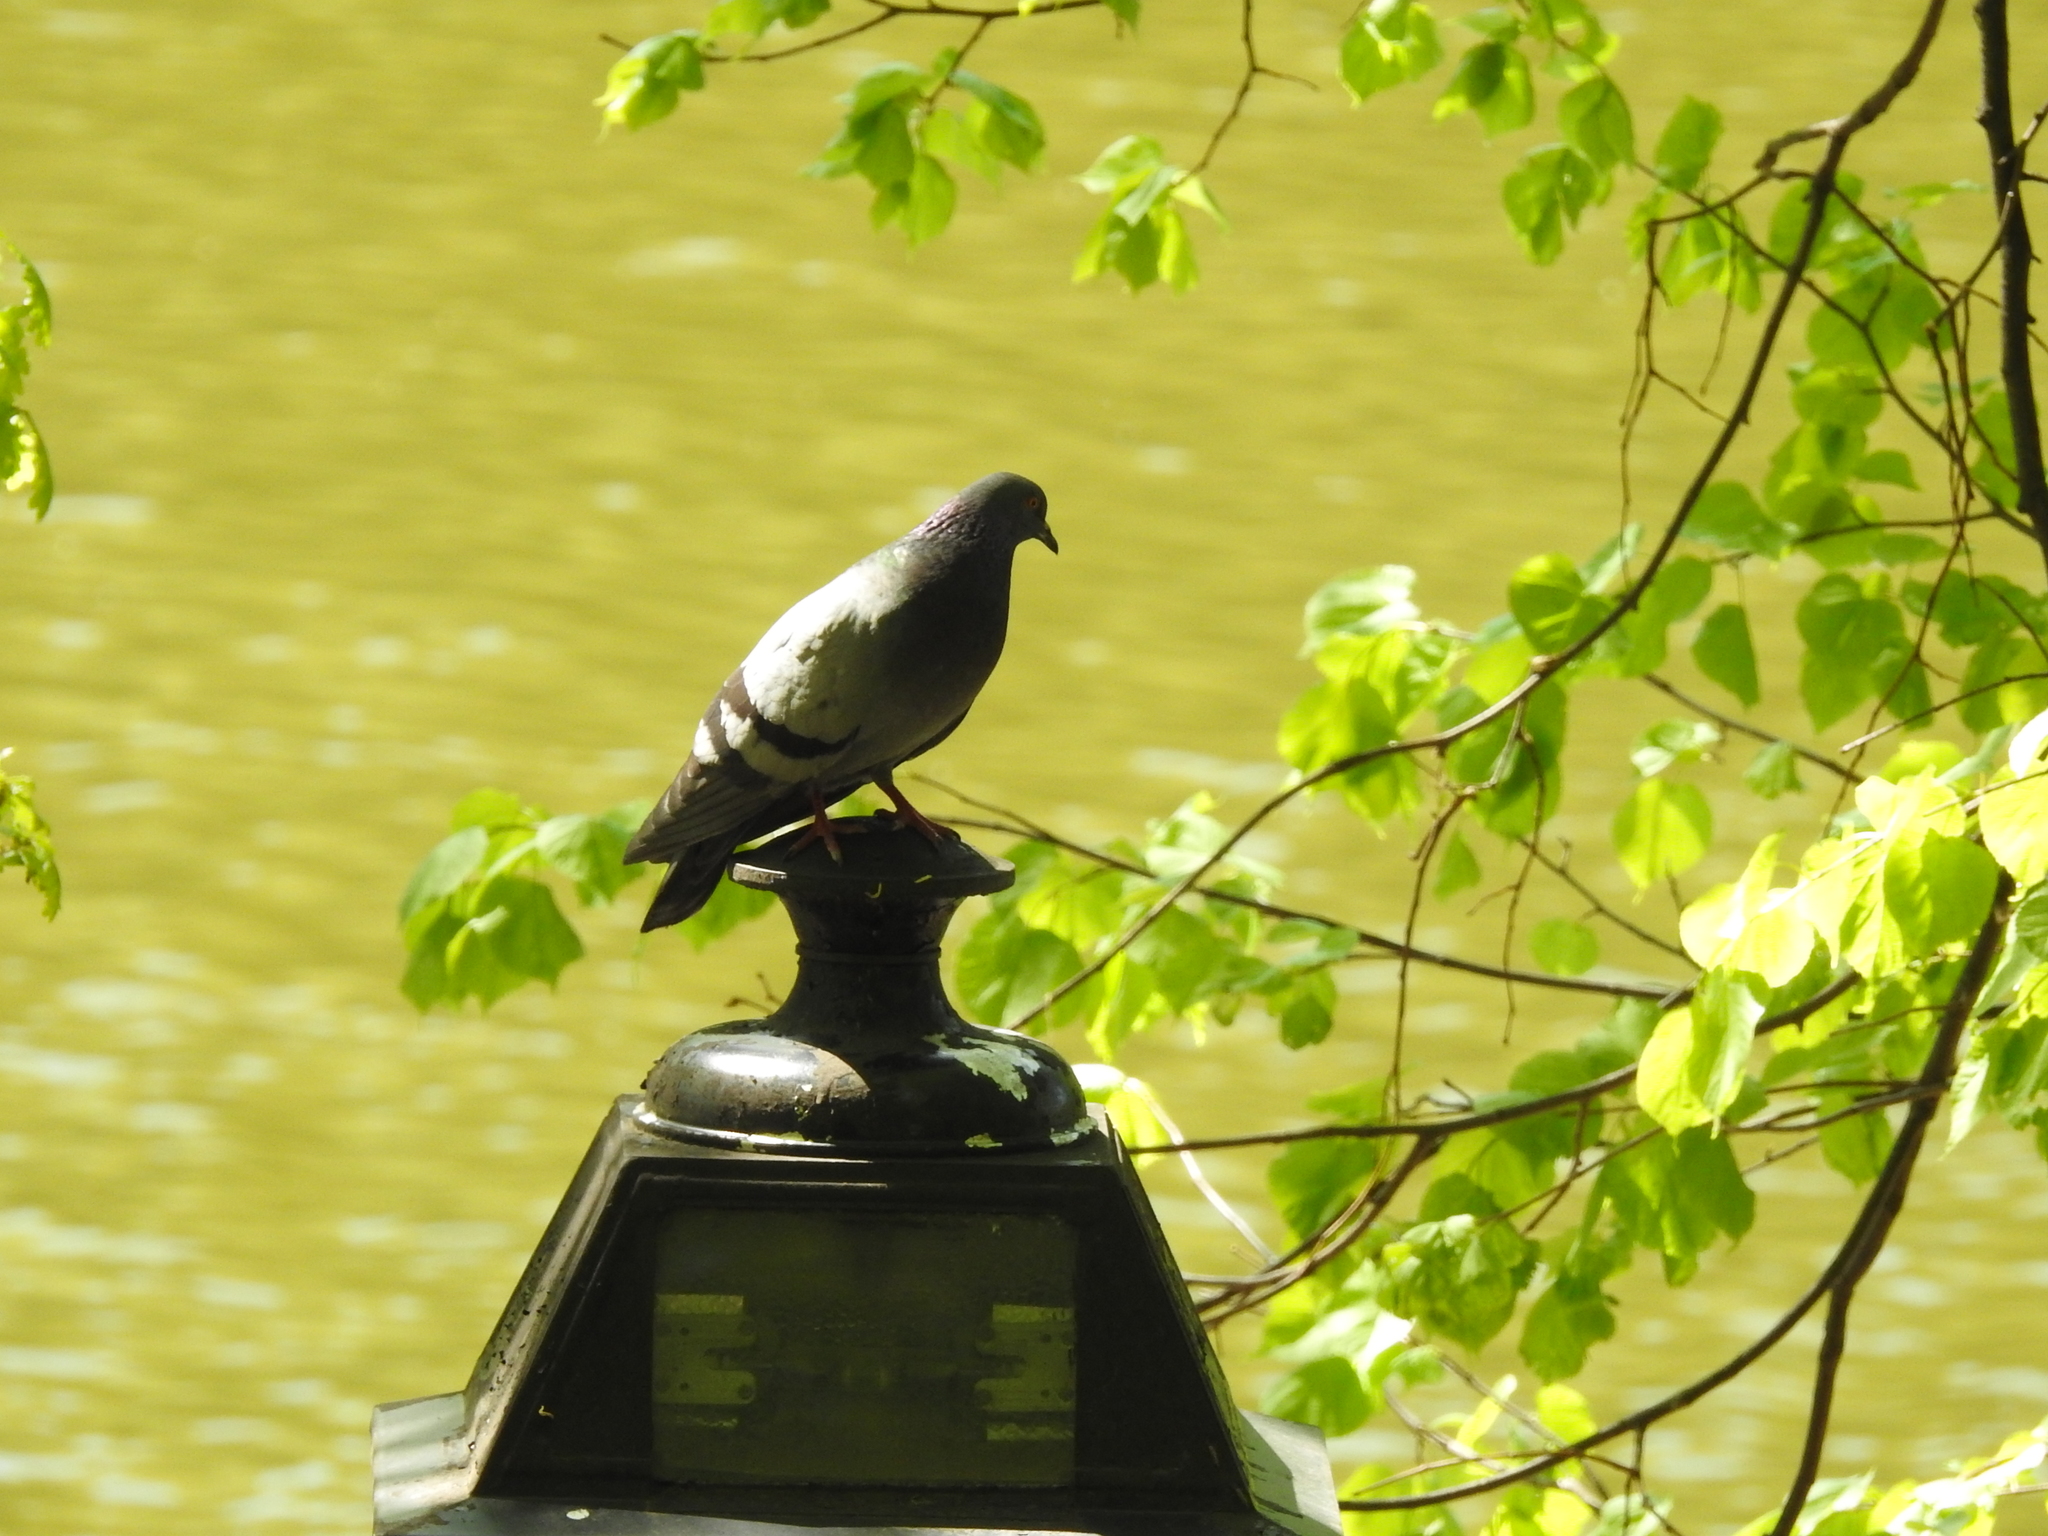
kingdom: Animalia
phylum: Chordata
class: Aves
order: Columbiformes
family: Columbidae
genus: Columba
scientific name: Columba livia
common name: Rock pigeon
